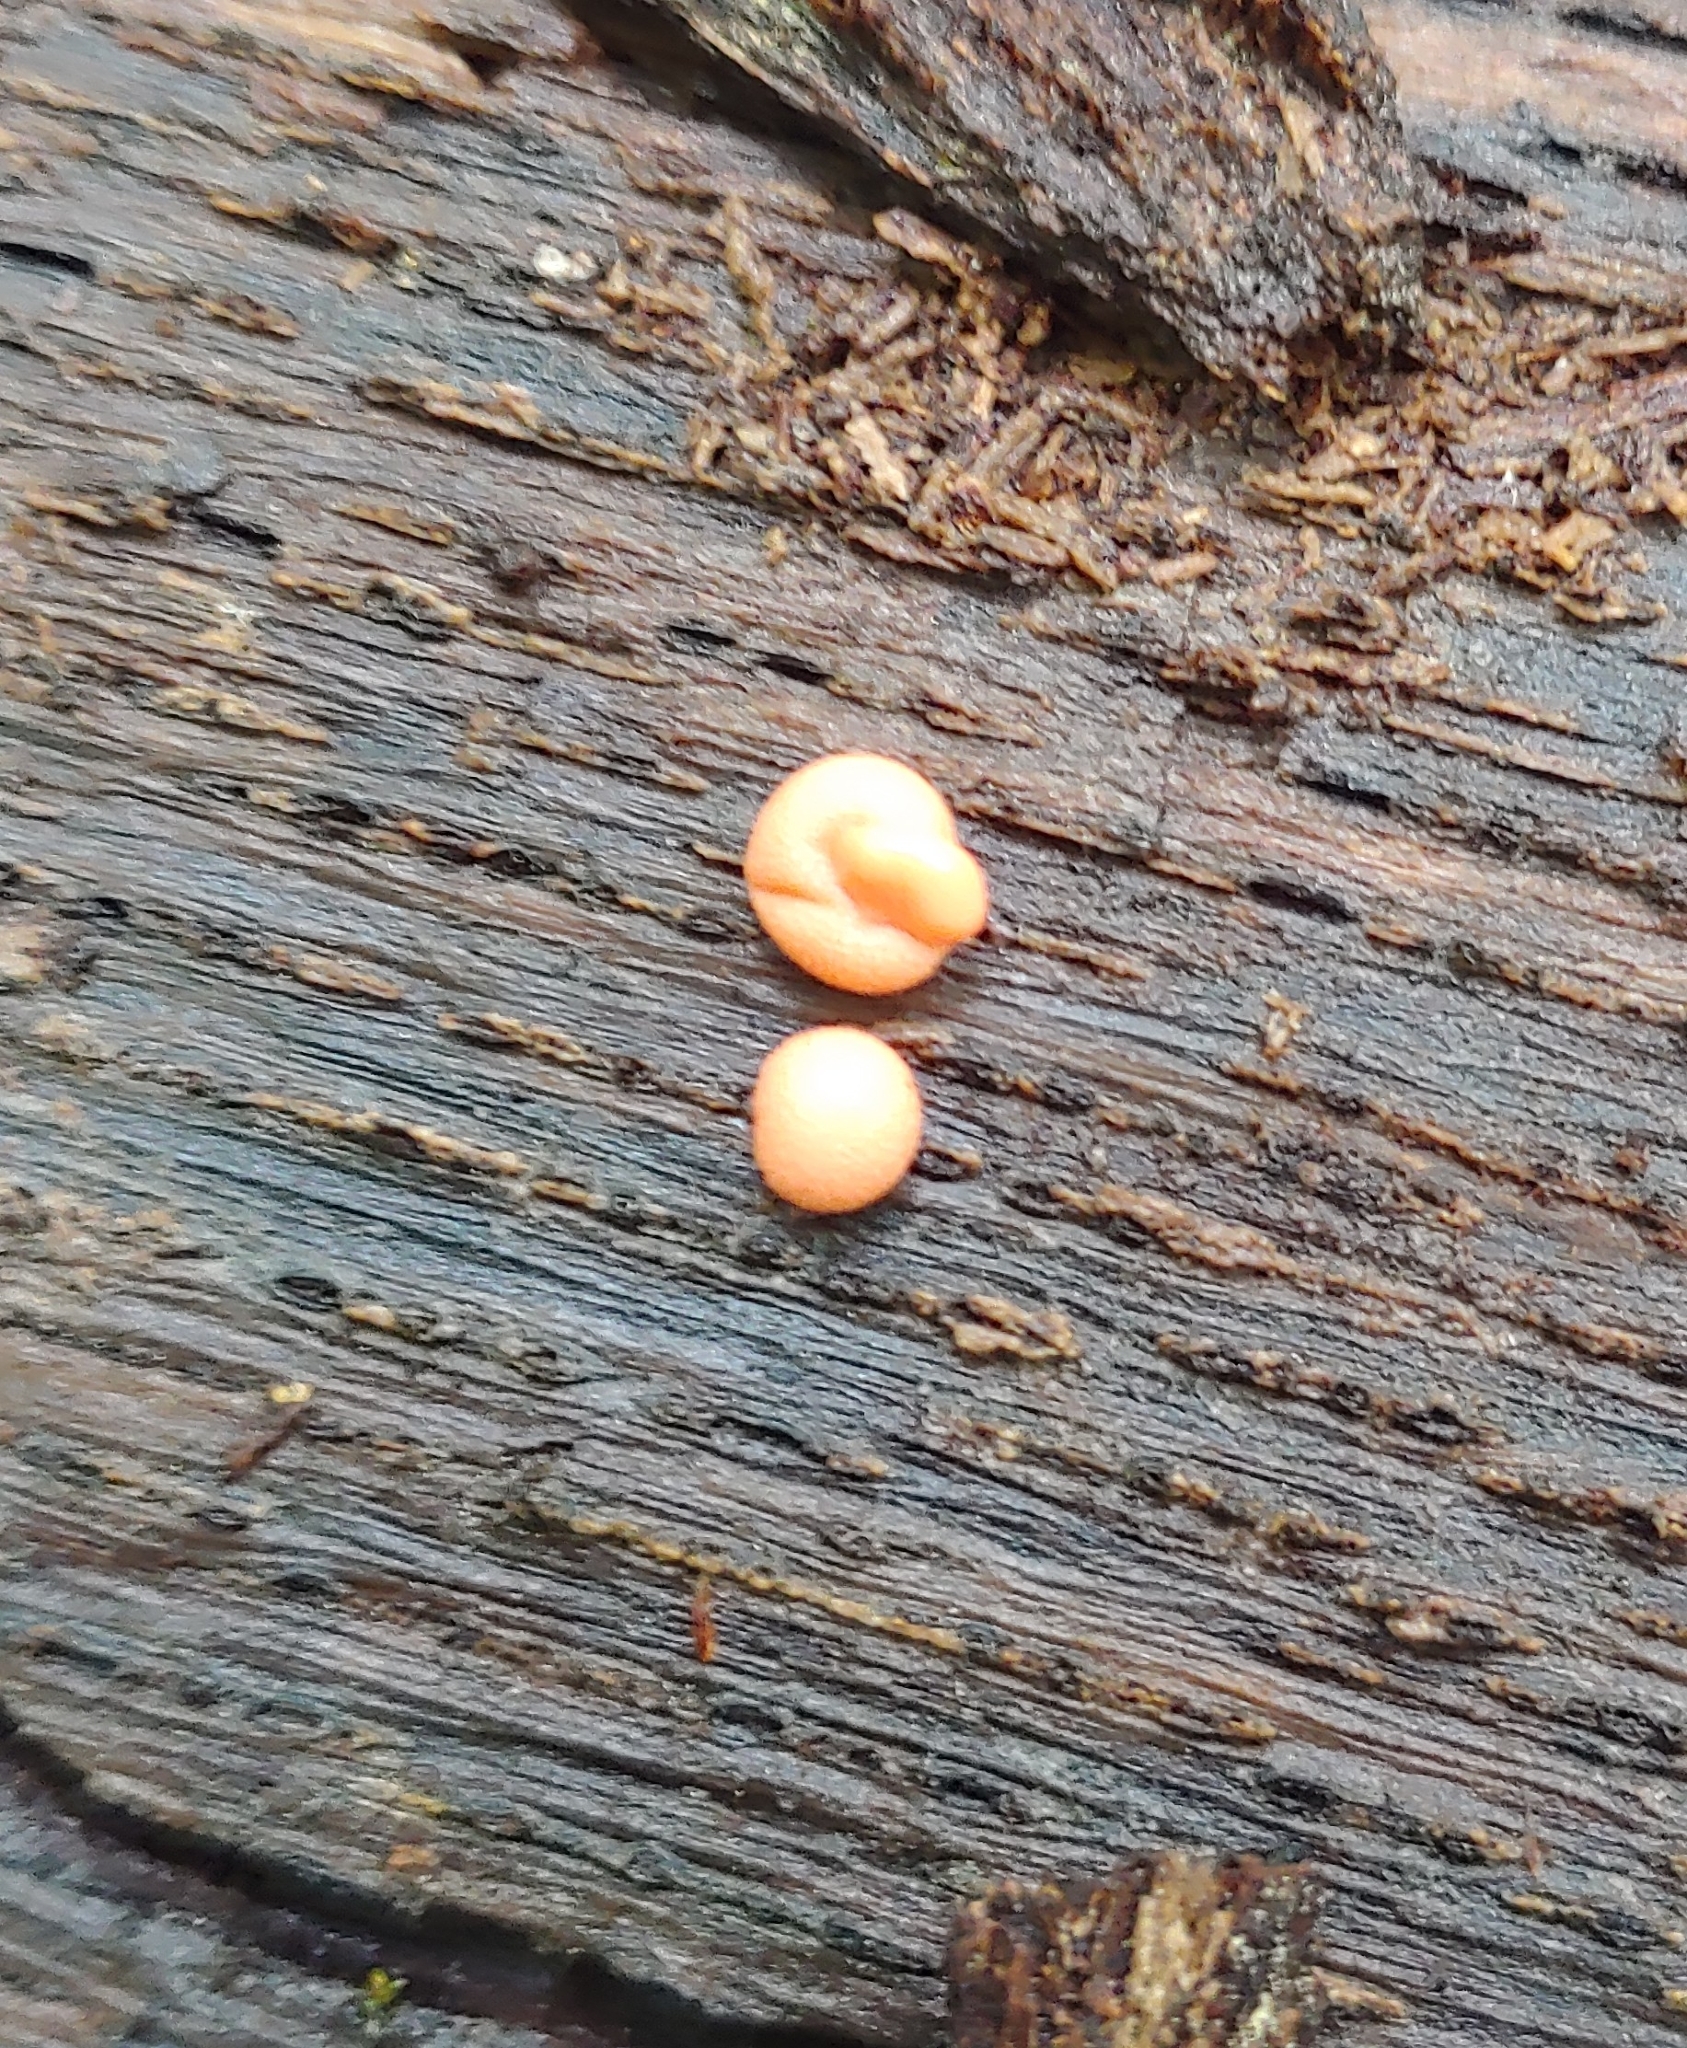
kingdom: Protozoa
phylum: Mycetozoa
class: Myxomycetes
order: Cribrariales
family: Tubiferaceae
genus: Lycogala
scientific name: Lycogala epidendrum
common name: Wolf's milk
